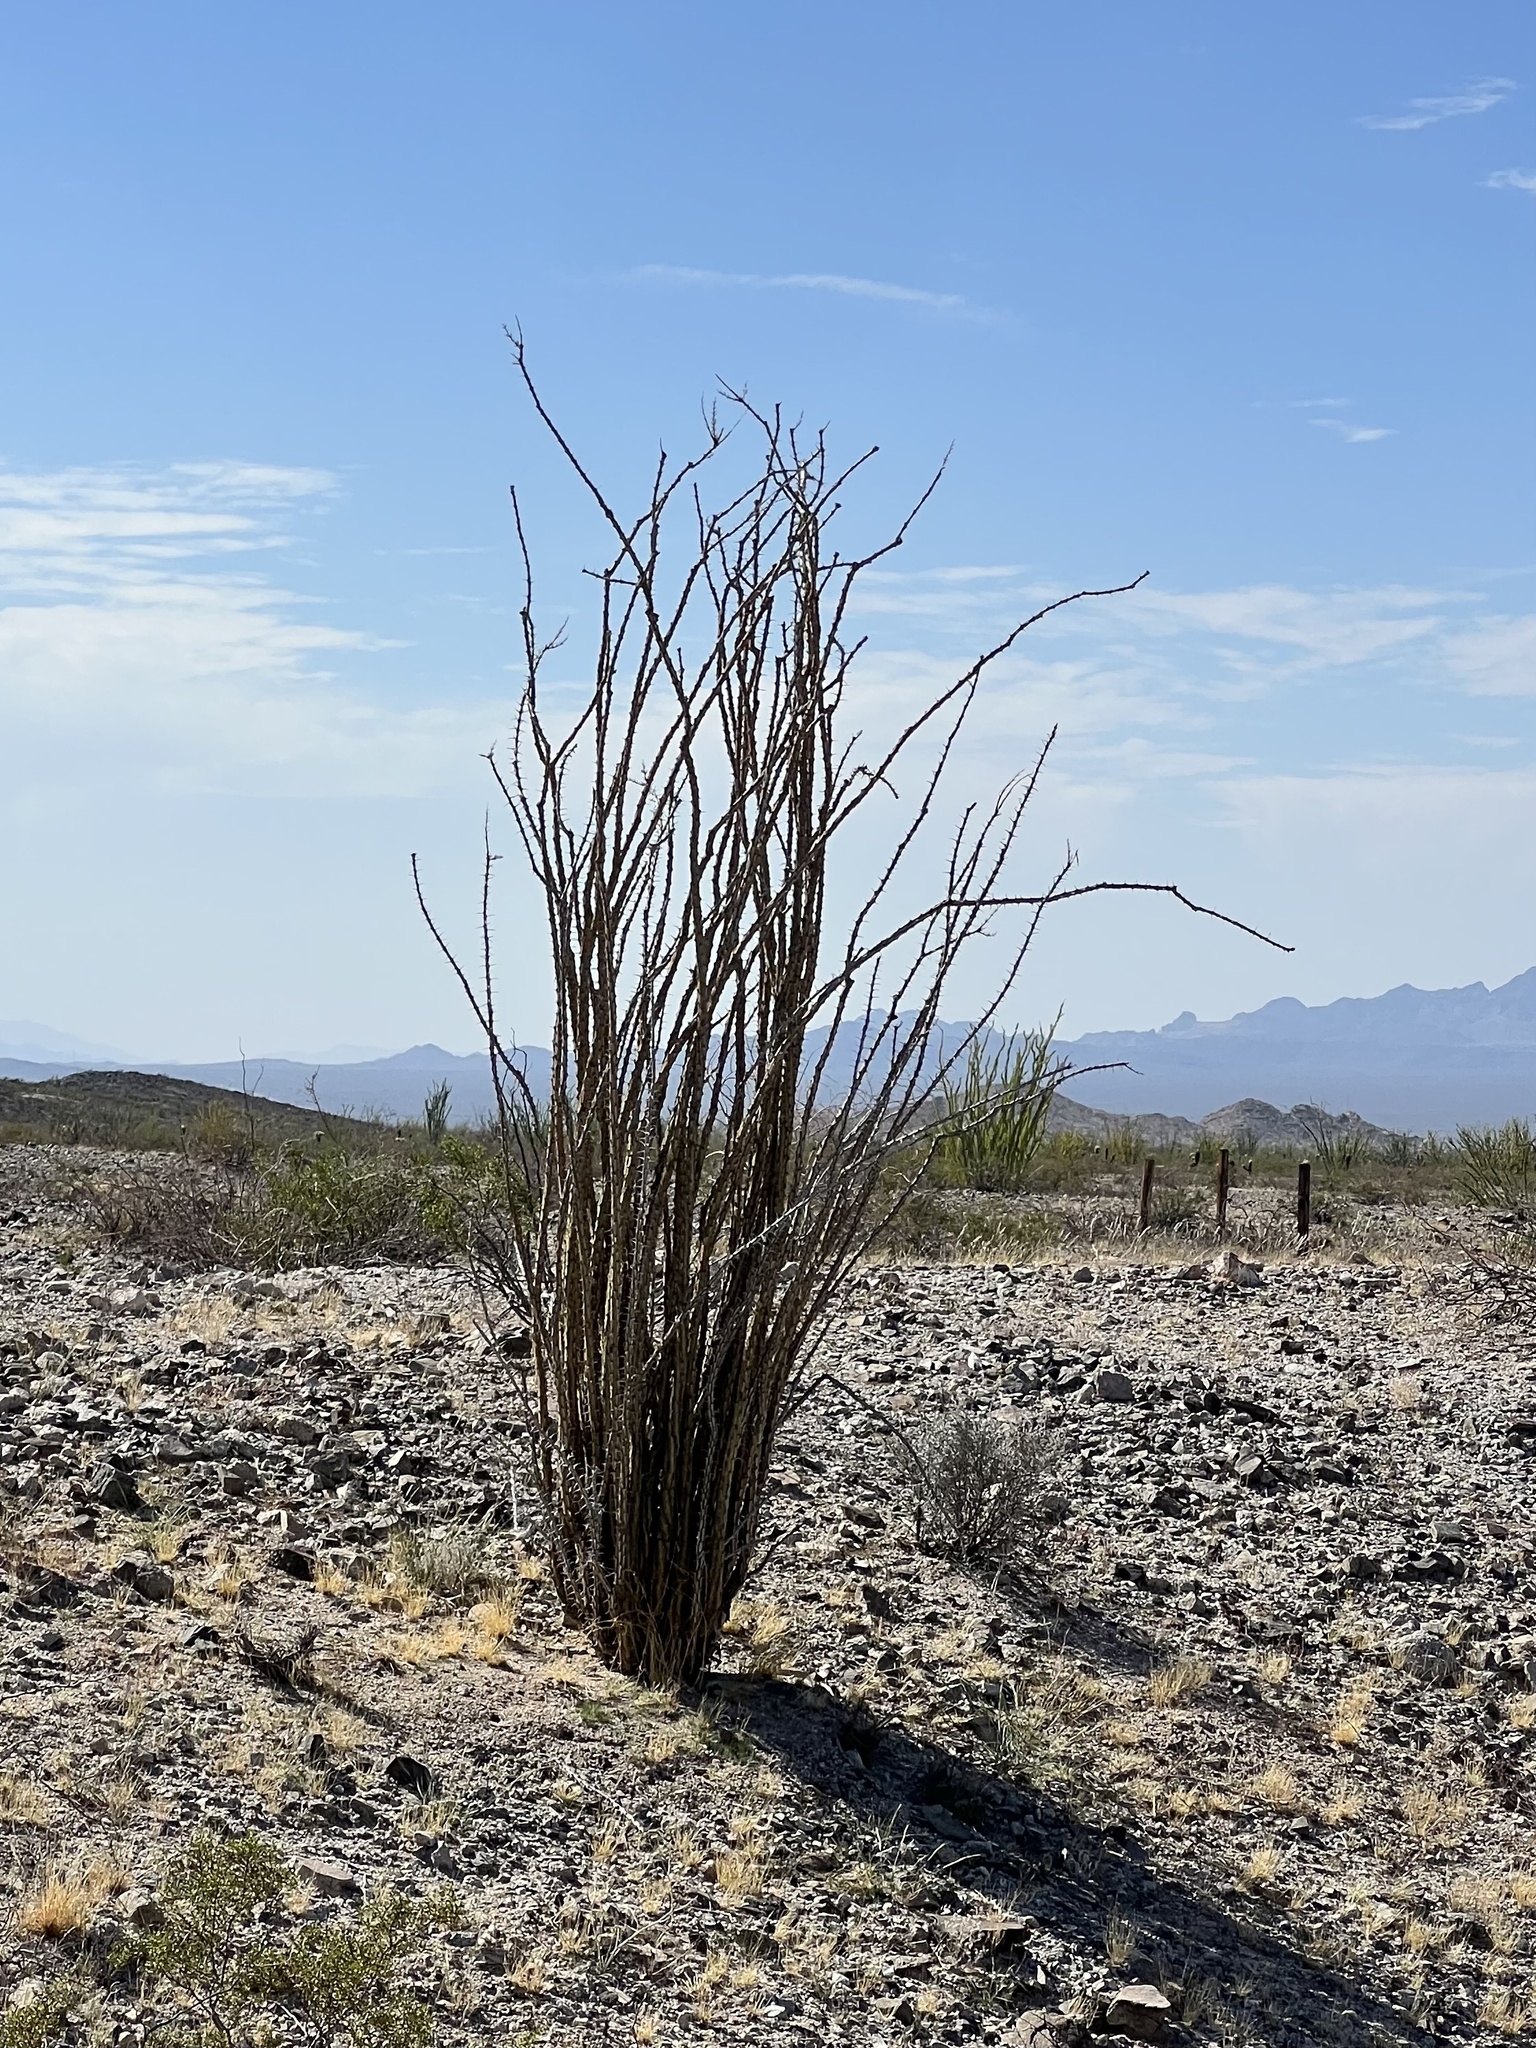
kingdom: Plantae
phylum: Tracheophyta
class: Magnoliopsida
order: Ericales
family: Fouquieriaceae
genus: Fouquieria
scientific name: Fouquieria splendens
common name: Vine-cactus
